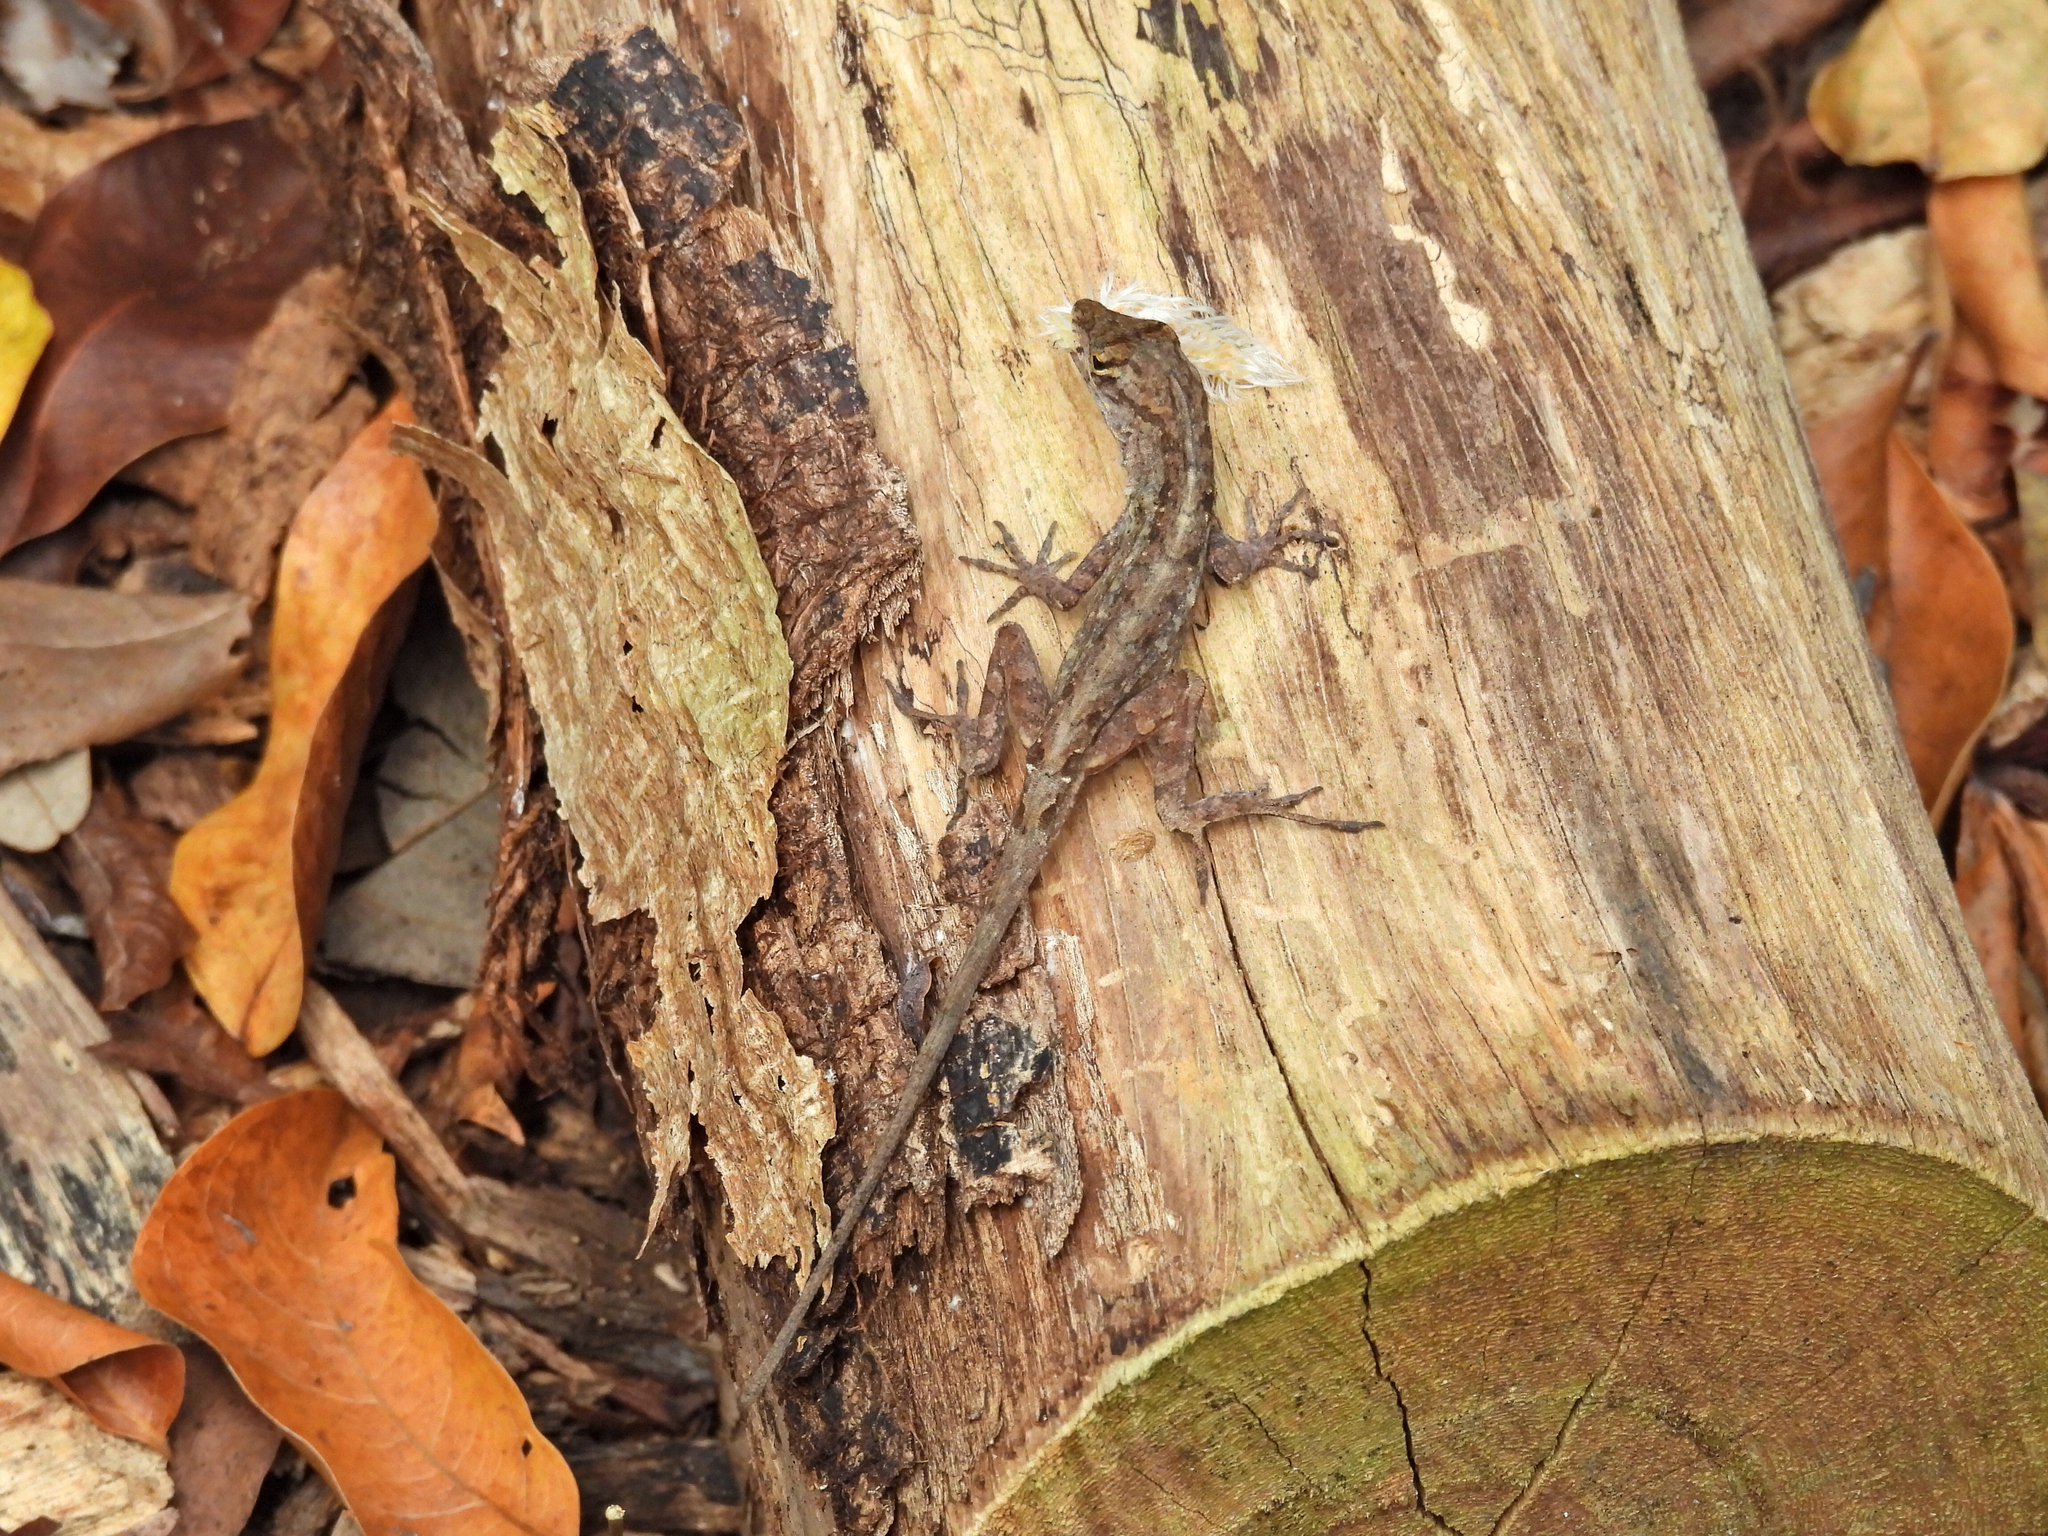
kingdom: Animalia
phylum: Chordata
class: Squamata
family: Dactyloidae
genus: Anolis
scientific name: Anolis sagrei
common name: Brown anole
